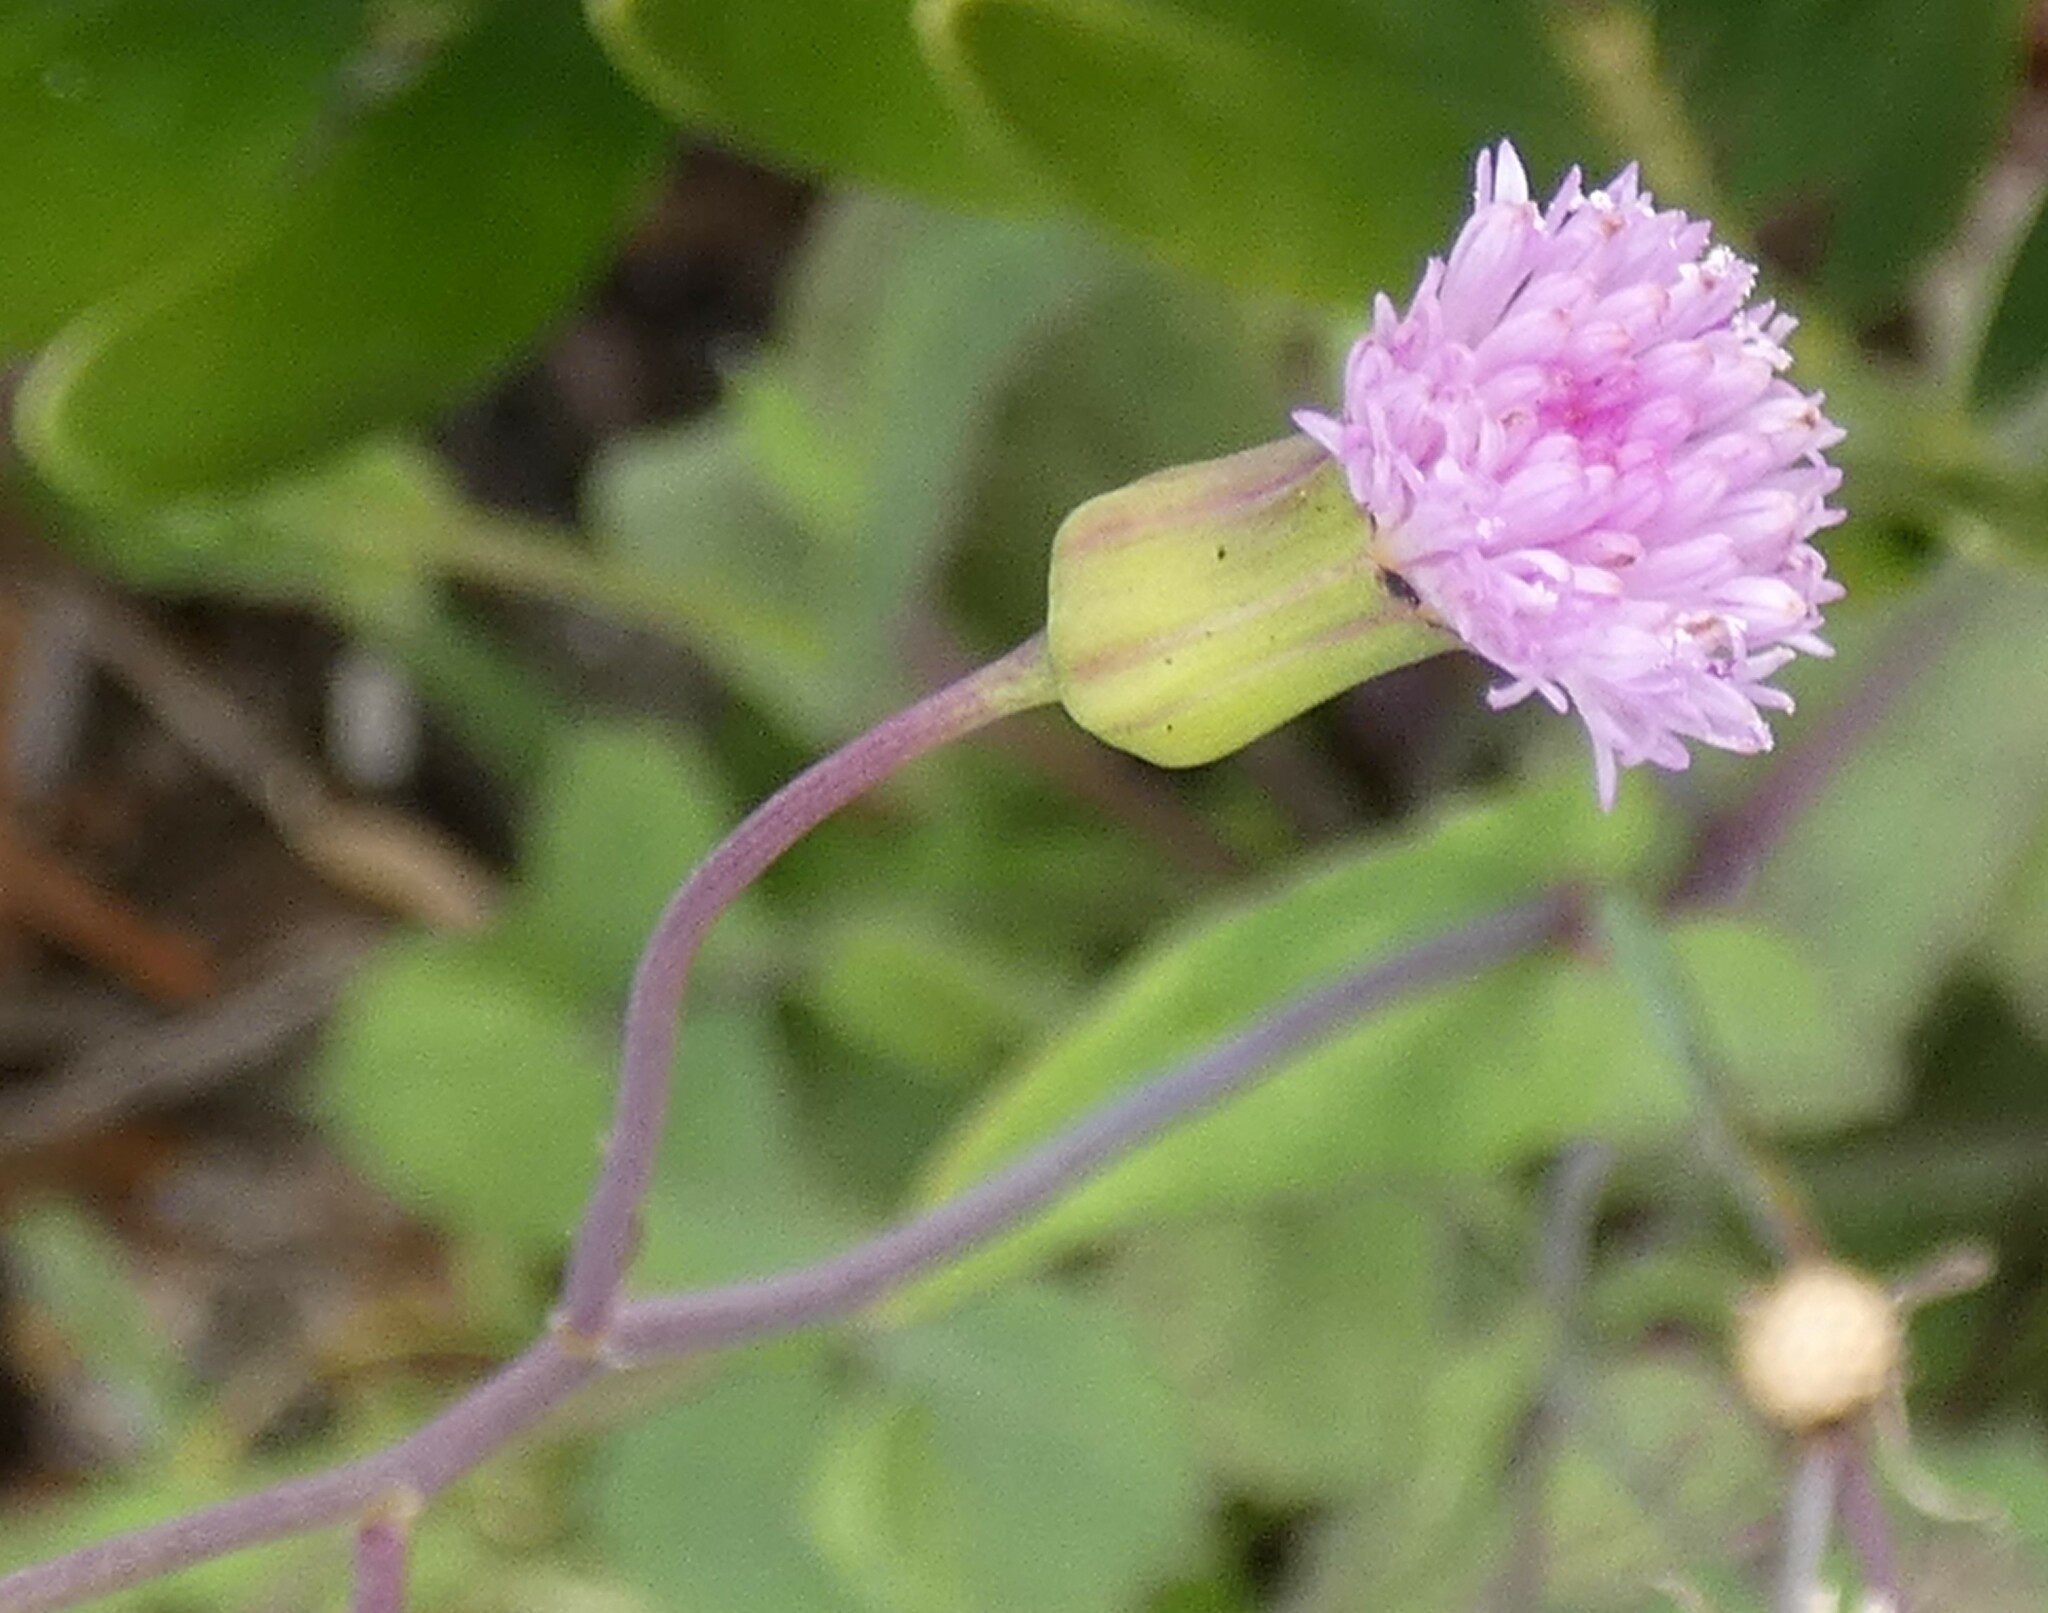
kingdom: Plantae
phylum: Tracheophyta
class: Magnoliopsida
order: Asterales
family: Asteraceae
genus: Emilia
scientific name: Emilia sonchifolia
